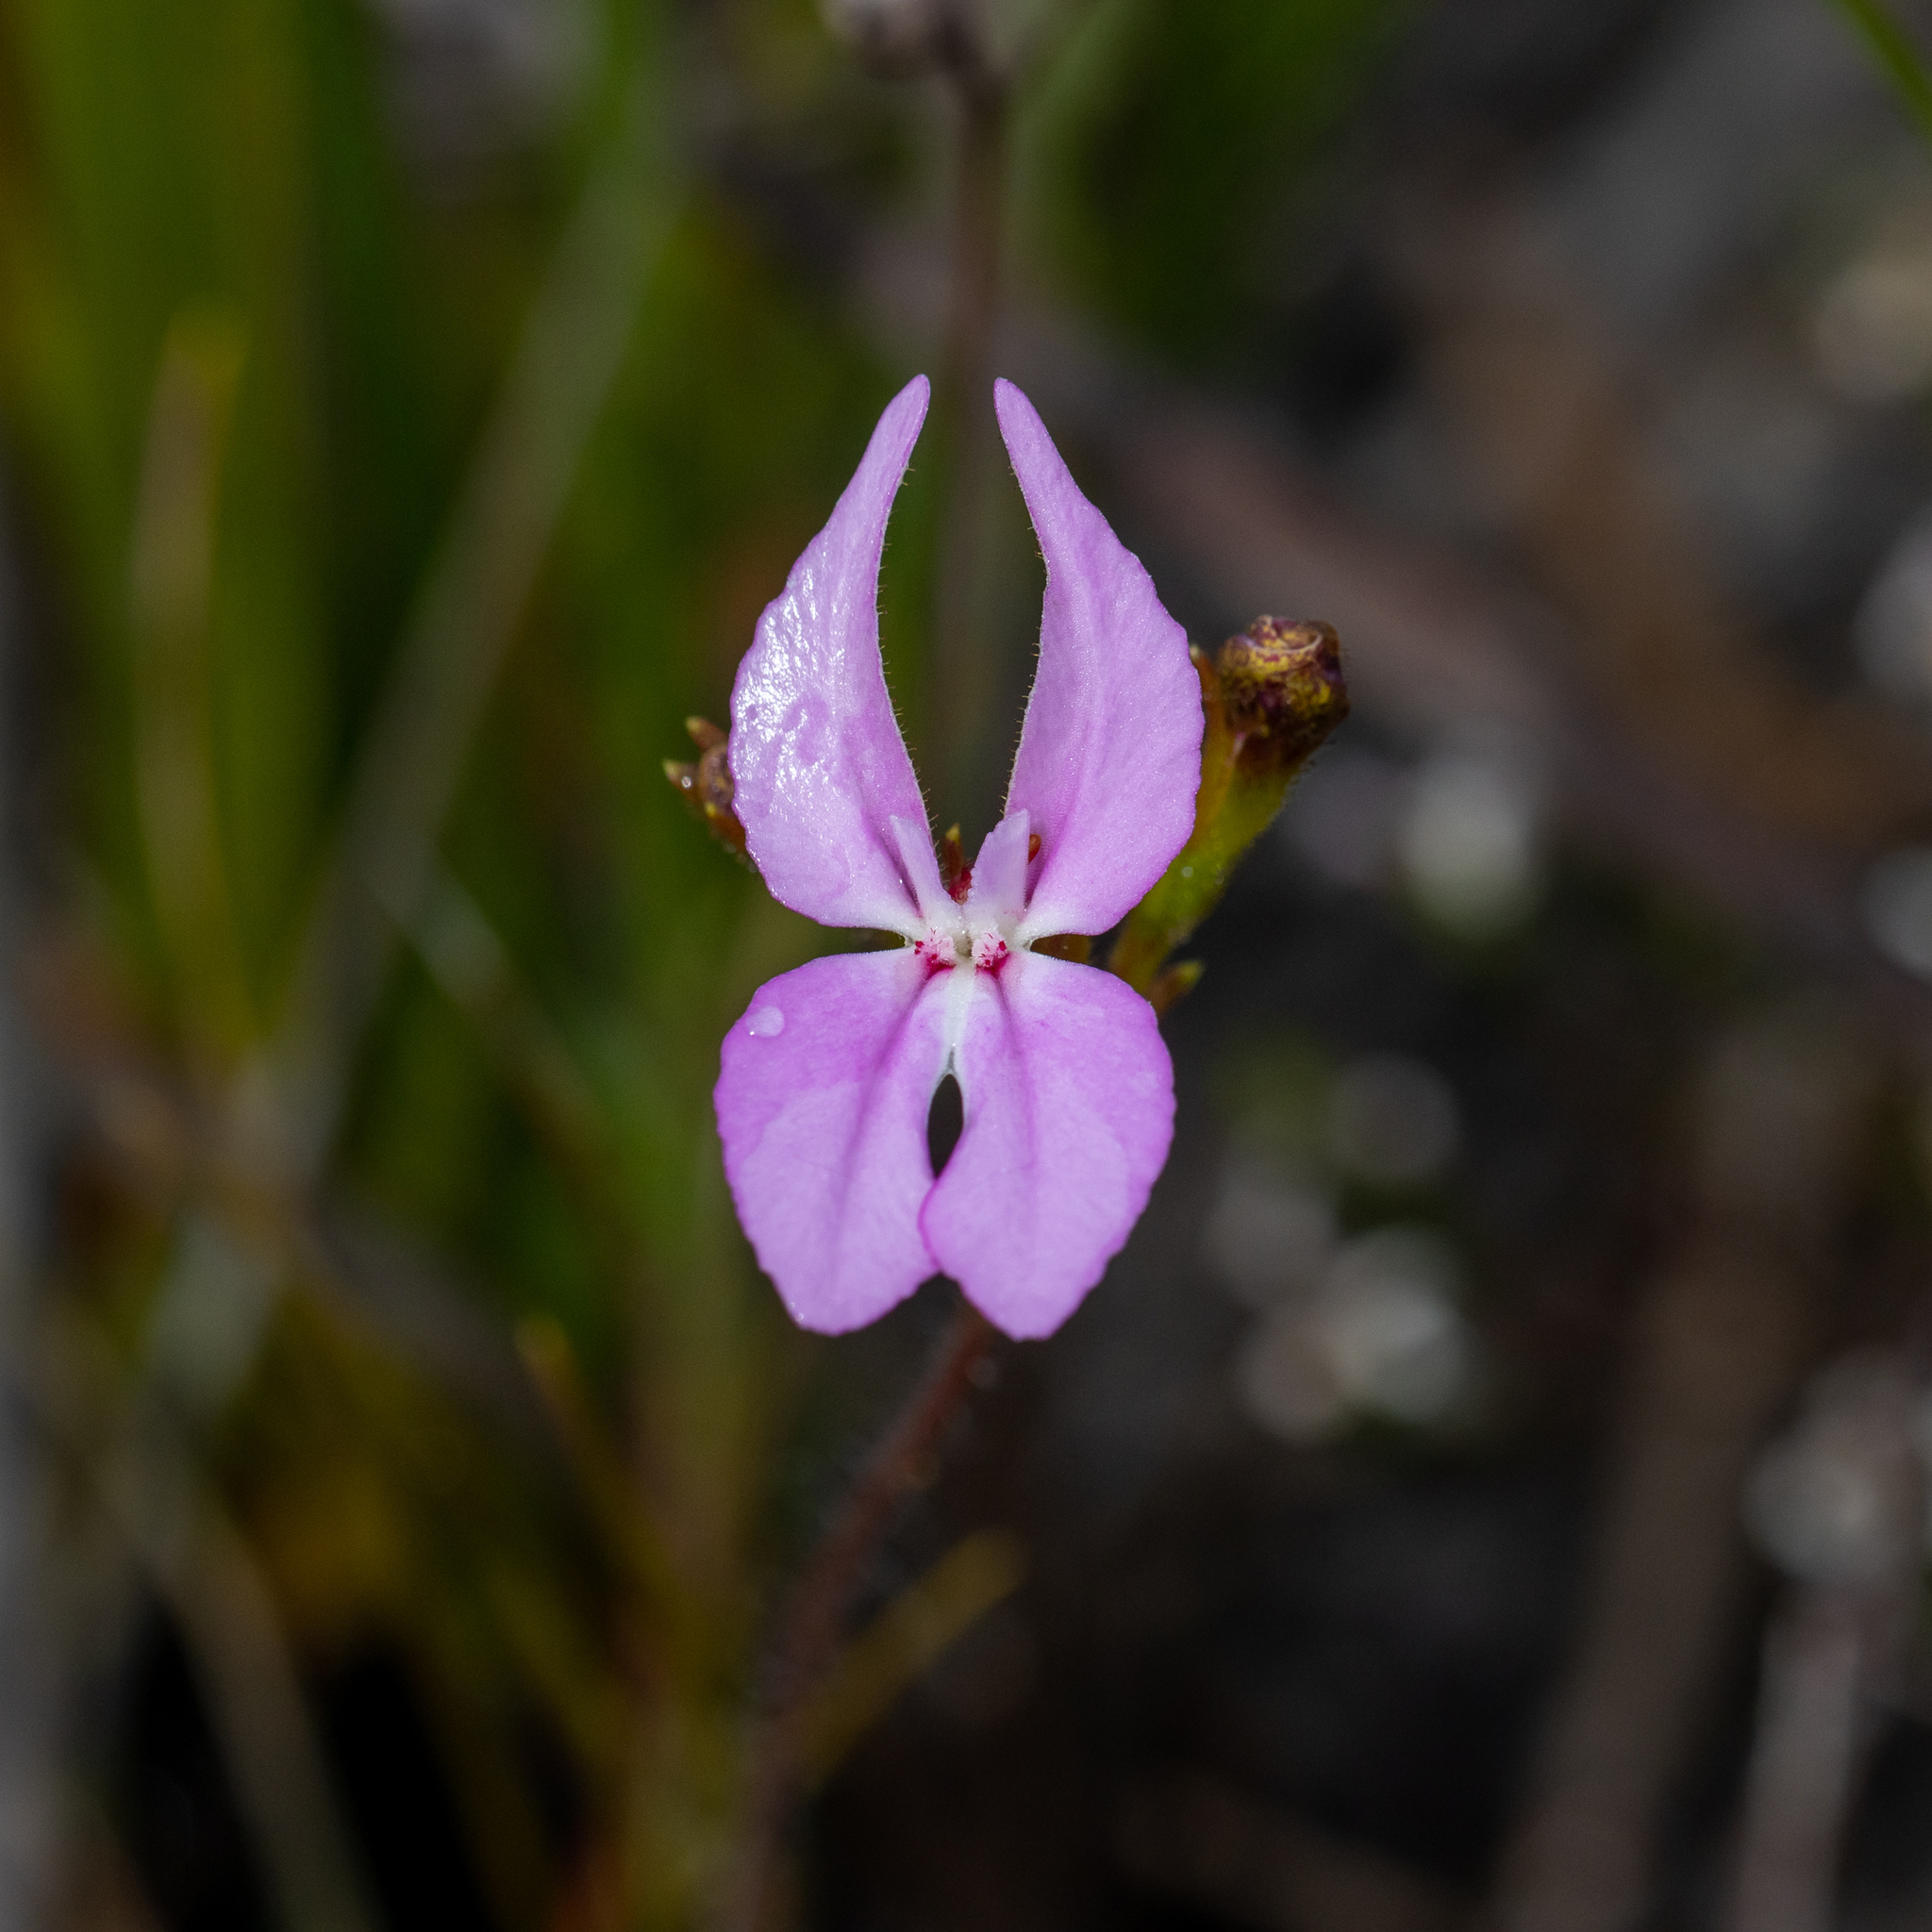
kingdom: Plantae
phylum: Tracheophyta
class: Magnoliopsida
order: Asterales
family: Stylidiaceae
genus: Stylidium
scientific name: Stylidium macranthum
